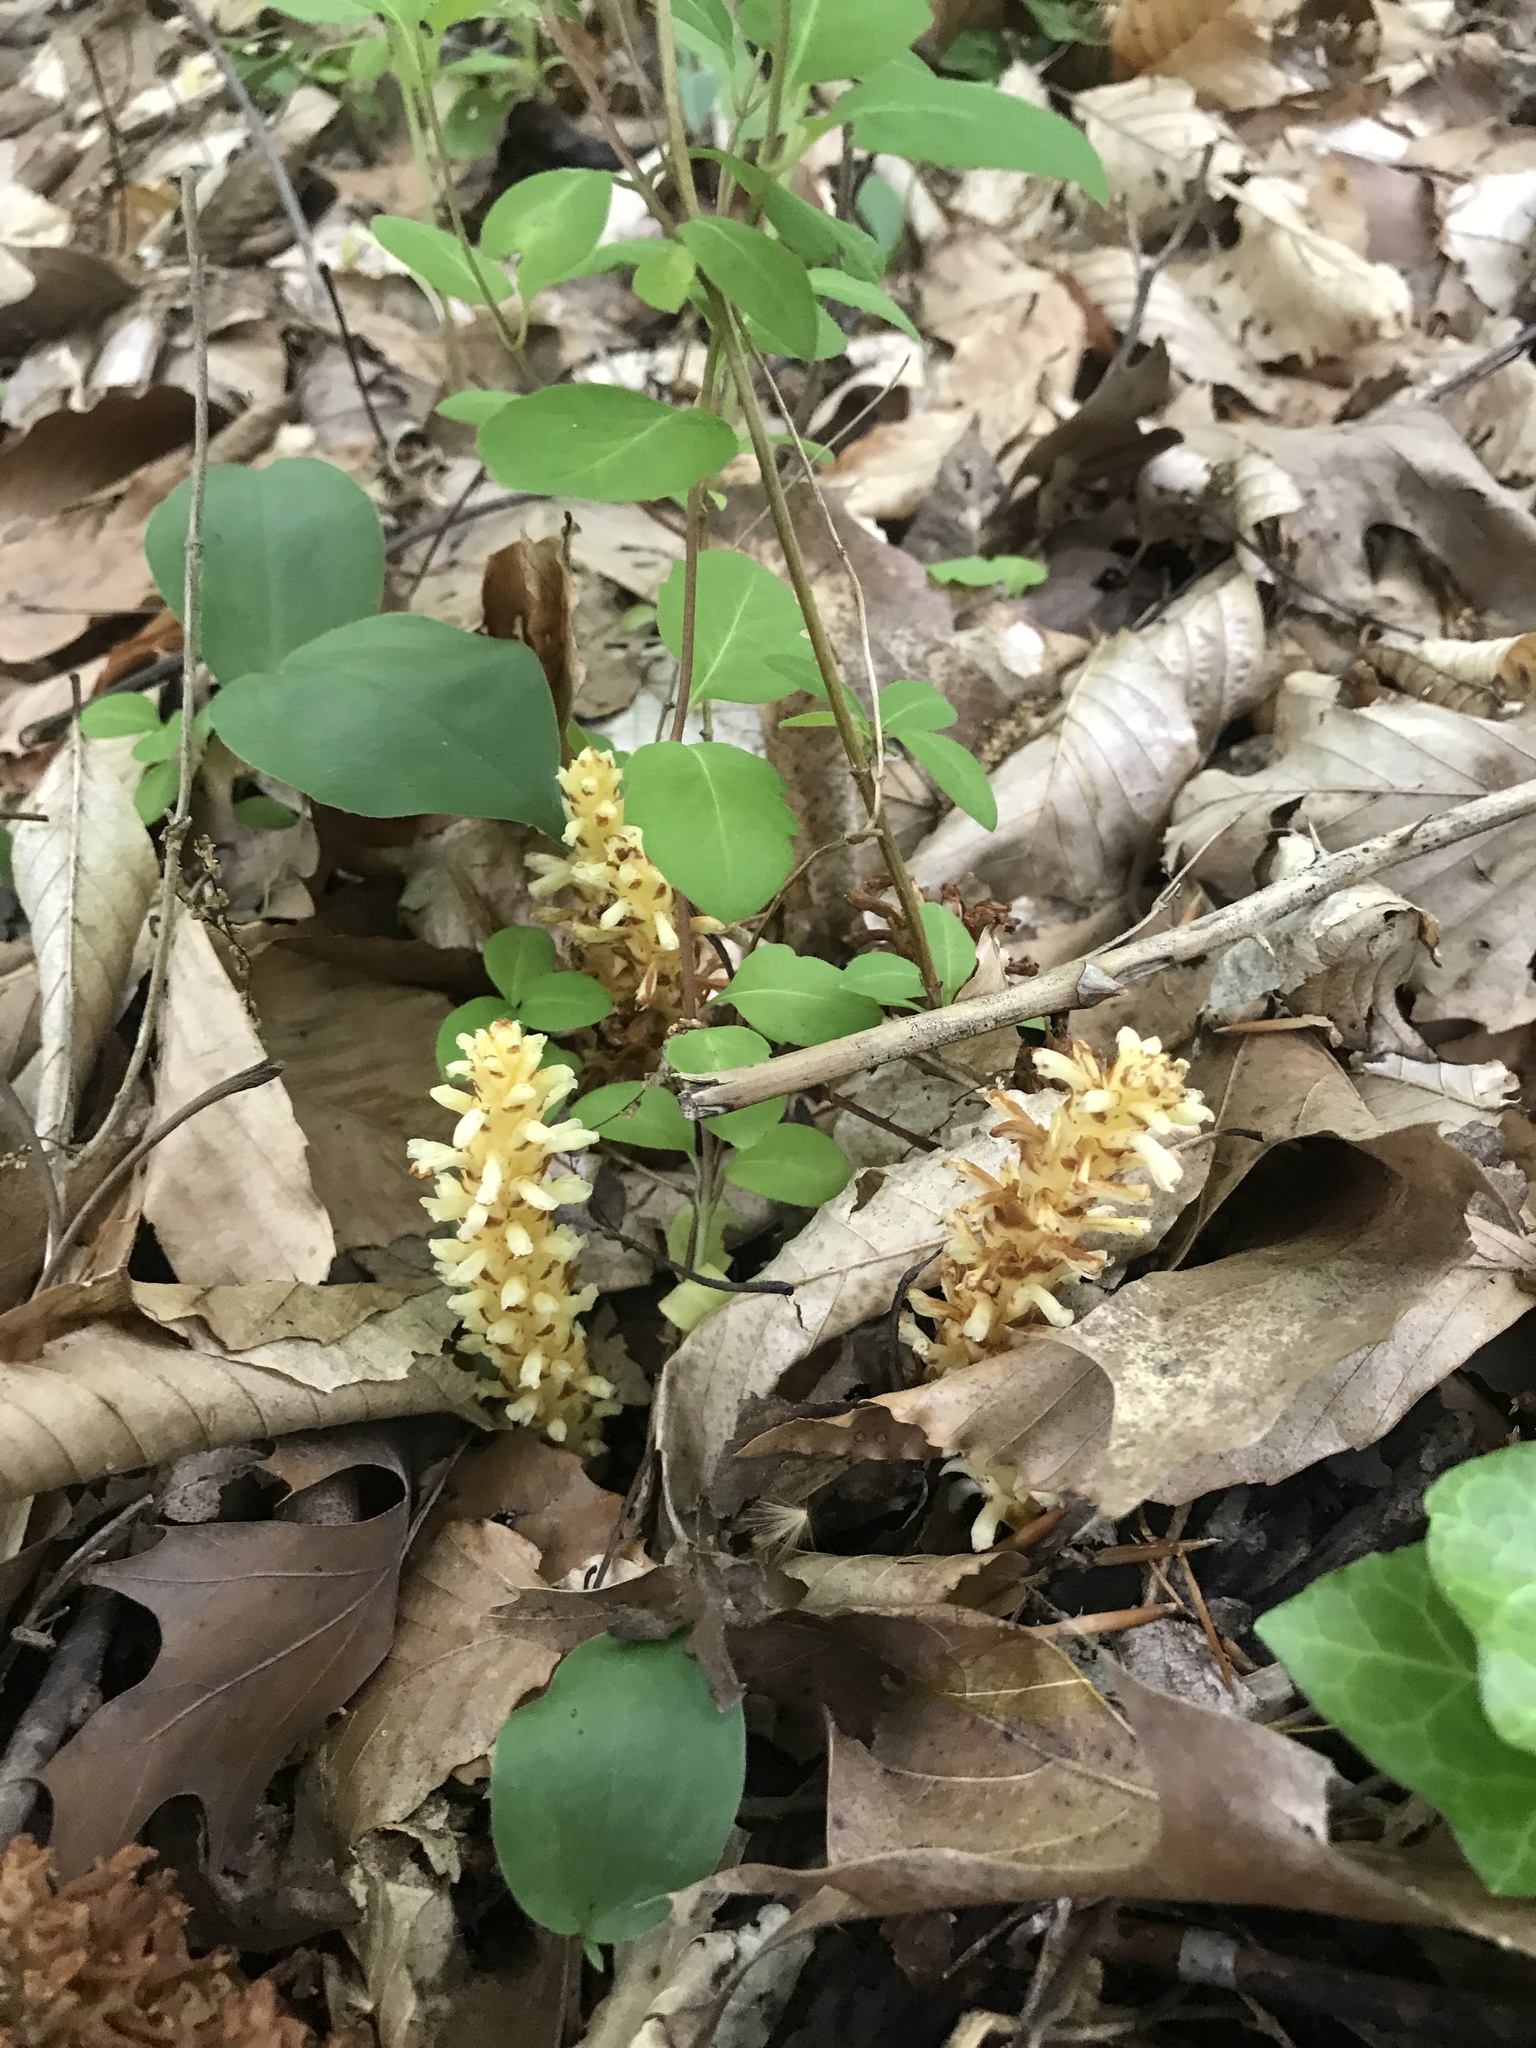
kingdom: Plantae
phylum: Tracheophyta
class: Magnoliopsida
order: Lamiales
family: Orobanchaceae
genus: Conopholis
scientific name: Conopholis americana
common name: American cancer-root
